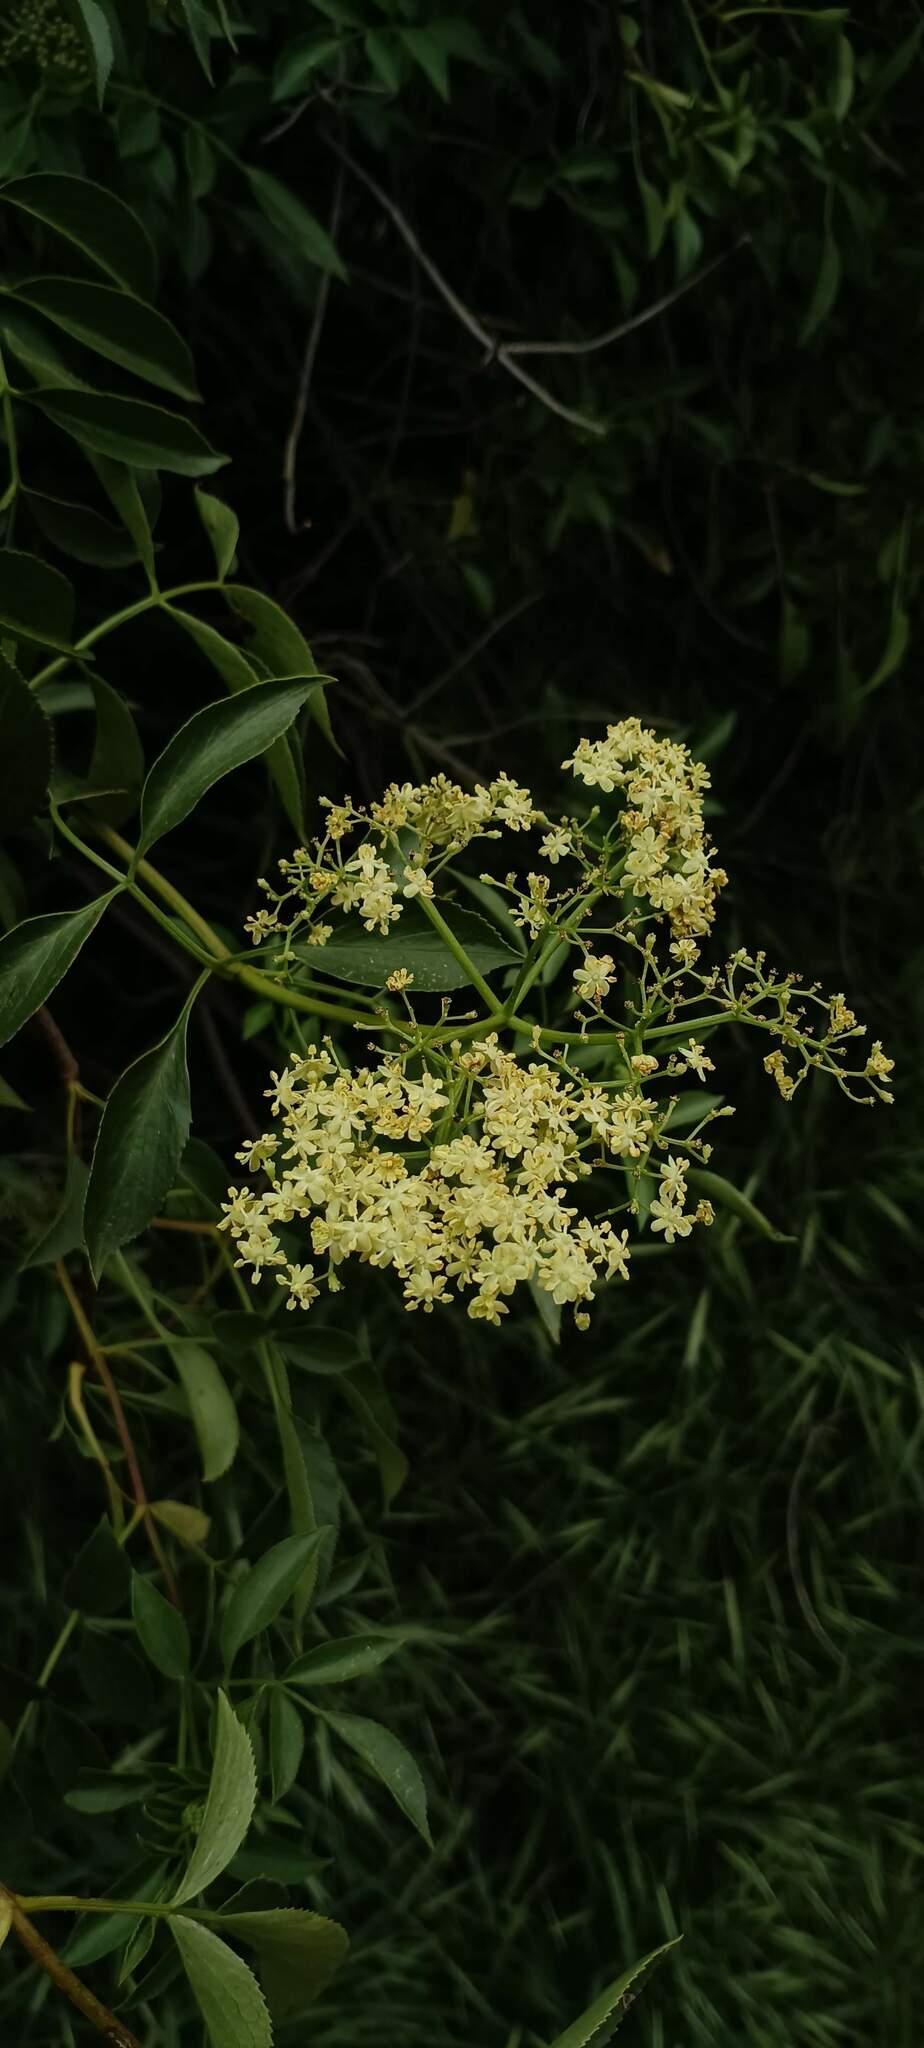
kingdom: Plantae
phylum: Tracheophyta
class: Magnoliopsida
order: Dipsacales
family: Viburnaceae
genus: Sambucus
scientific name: Sambucus cerulea
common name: Blue elder
